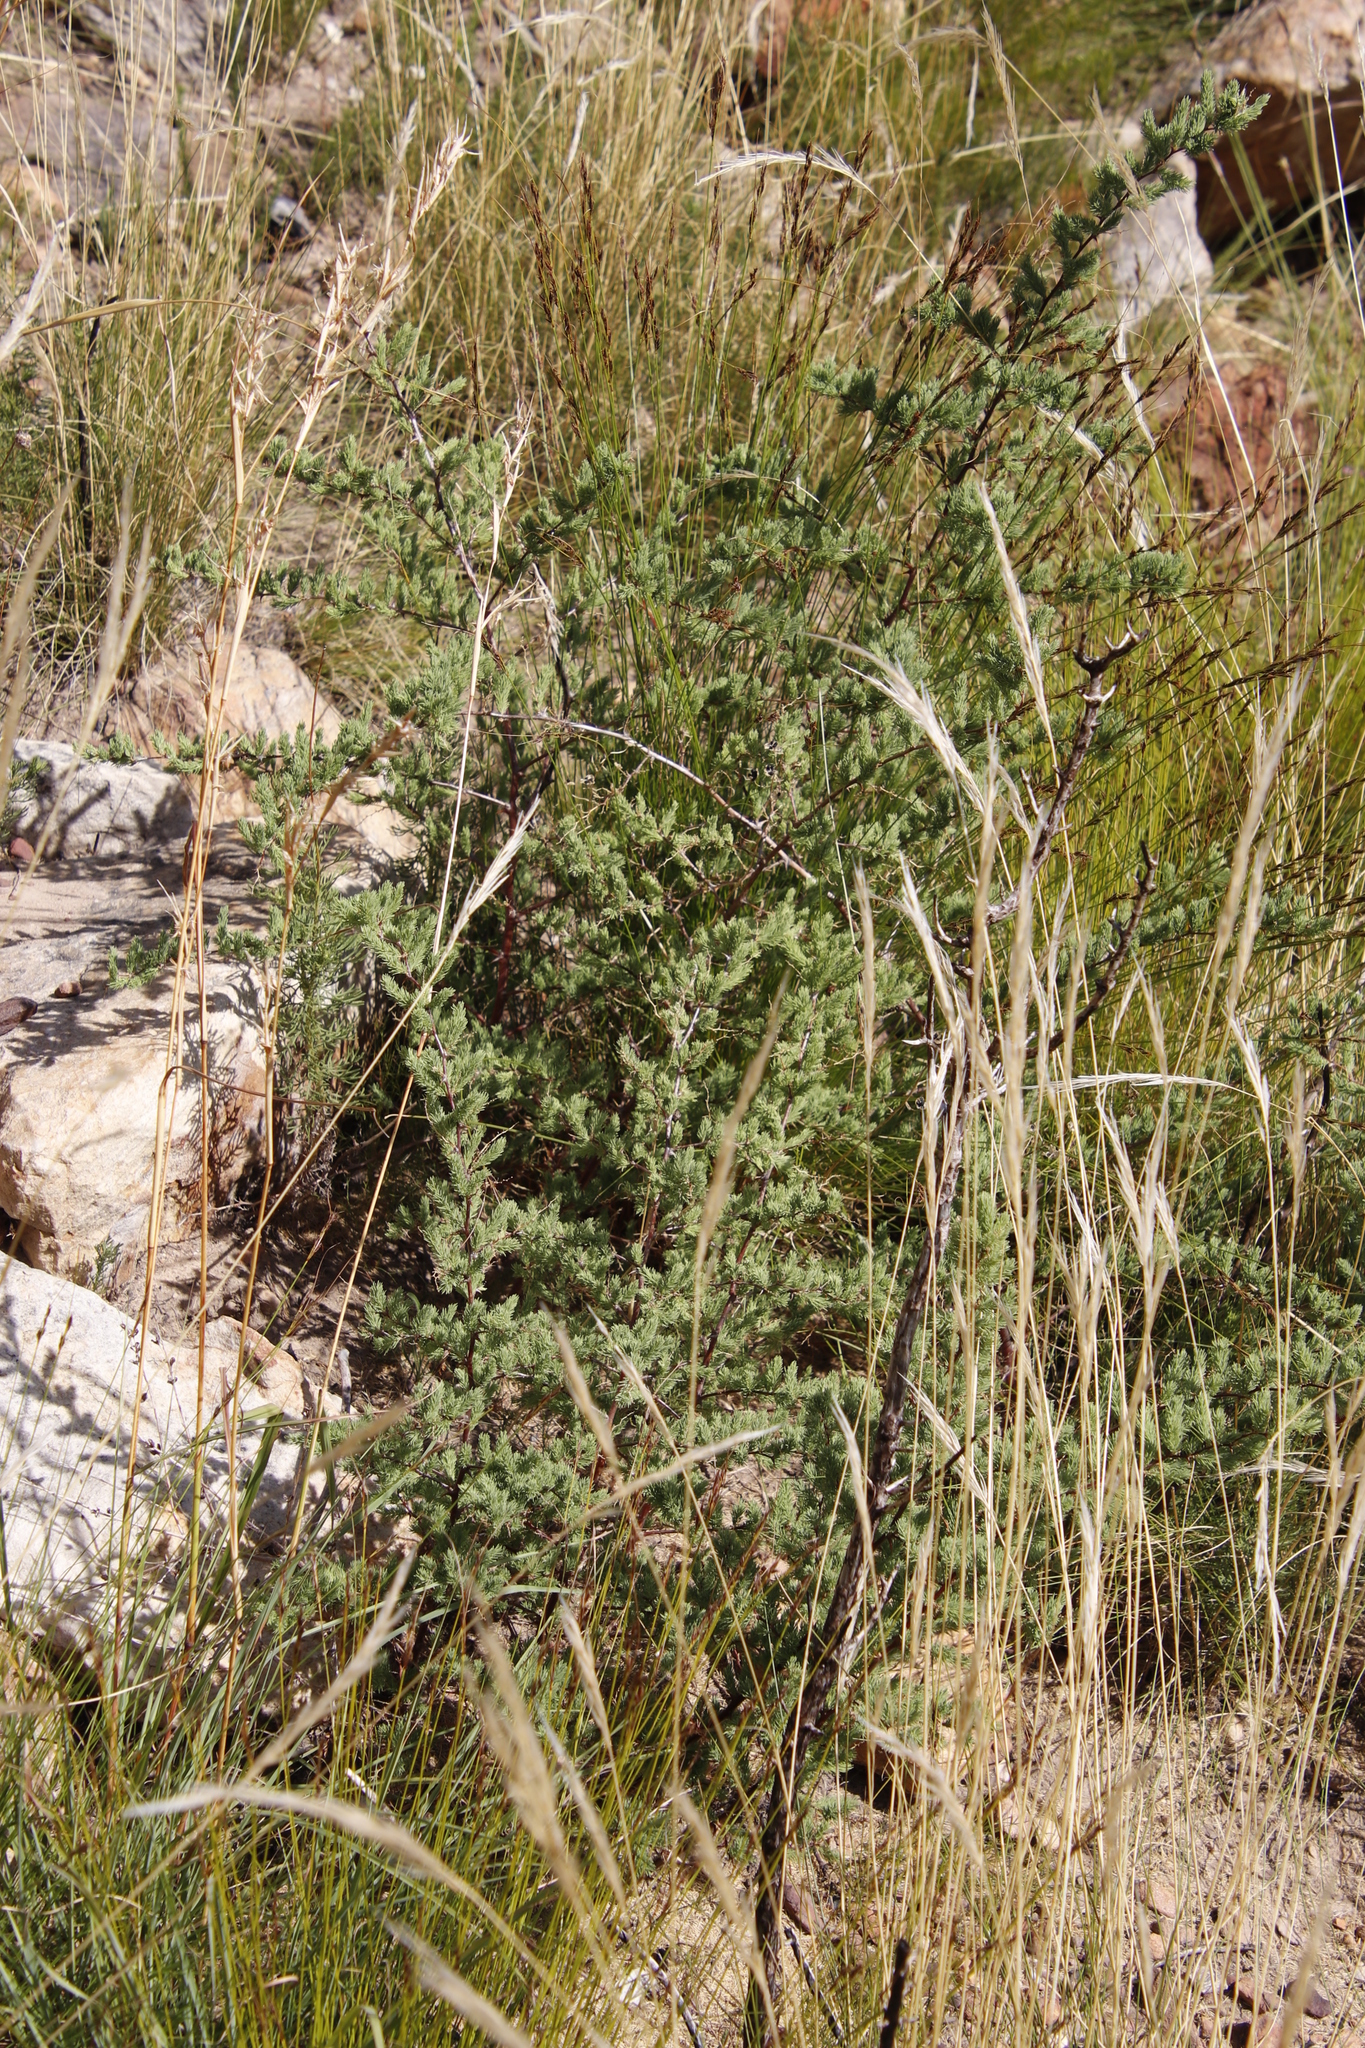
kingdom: Plantae
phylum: Tracheophyta
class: Liliopsida
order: Asparagales
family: Asparagaceae
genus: Asparagus
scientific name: Asparagus rubicundus
